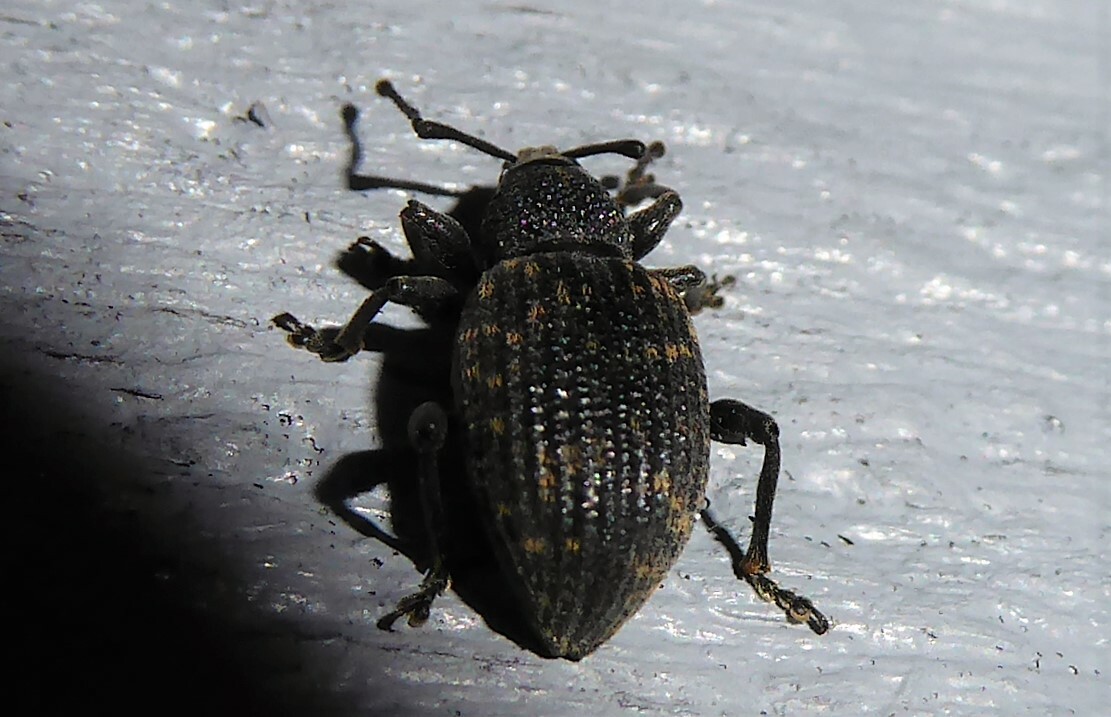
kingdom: Animalia
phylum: Arthropoda
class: Insecta
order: Coleoptera
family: Curculionidae
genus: Otiorhynchus
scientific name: Otiorhynchus sulcatus
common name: Black vine weevil
